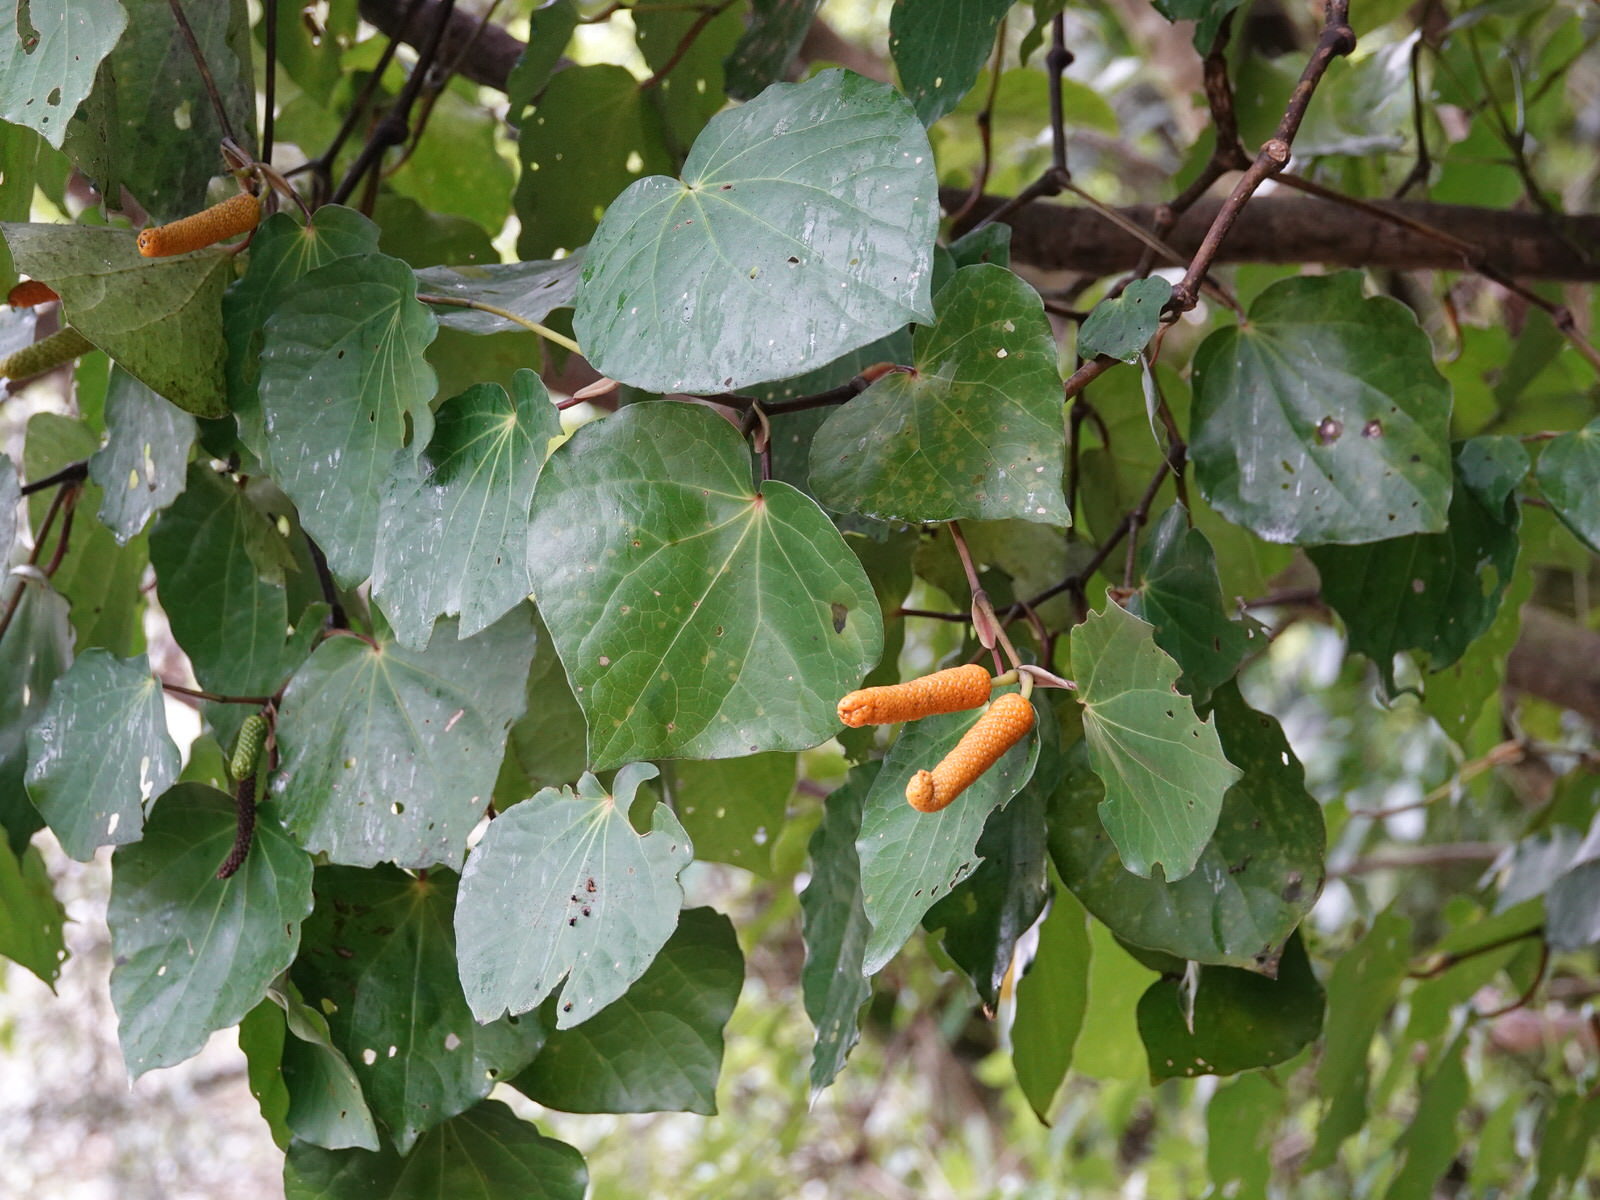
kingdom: Plantae
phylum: Tracheophyta
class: Magnoliopsida
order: Piperales
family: Piperaceae
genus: Macropiper
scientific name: Macropiper excelsum
